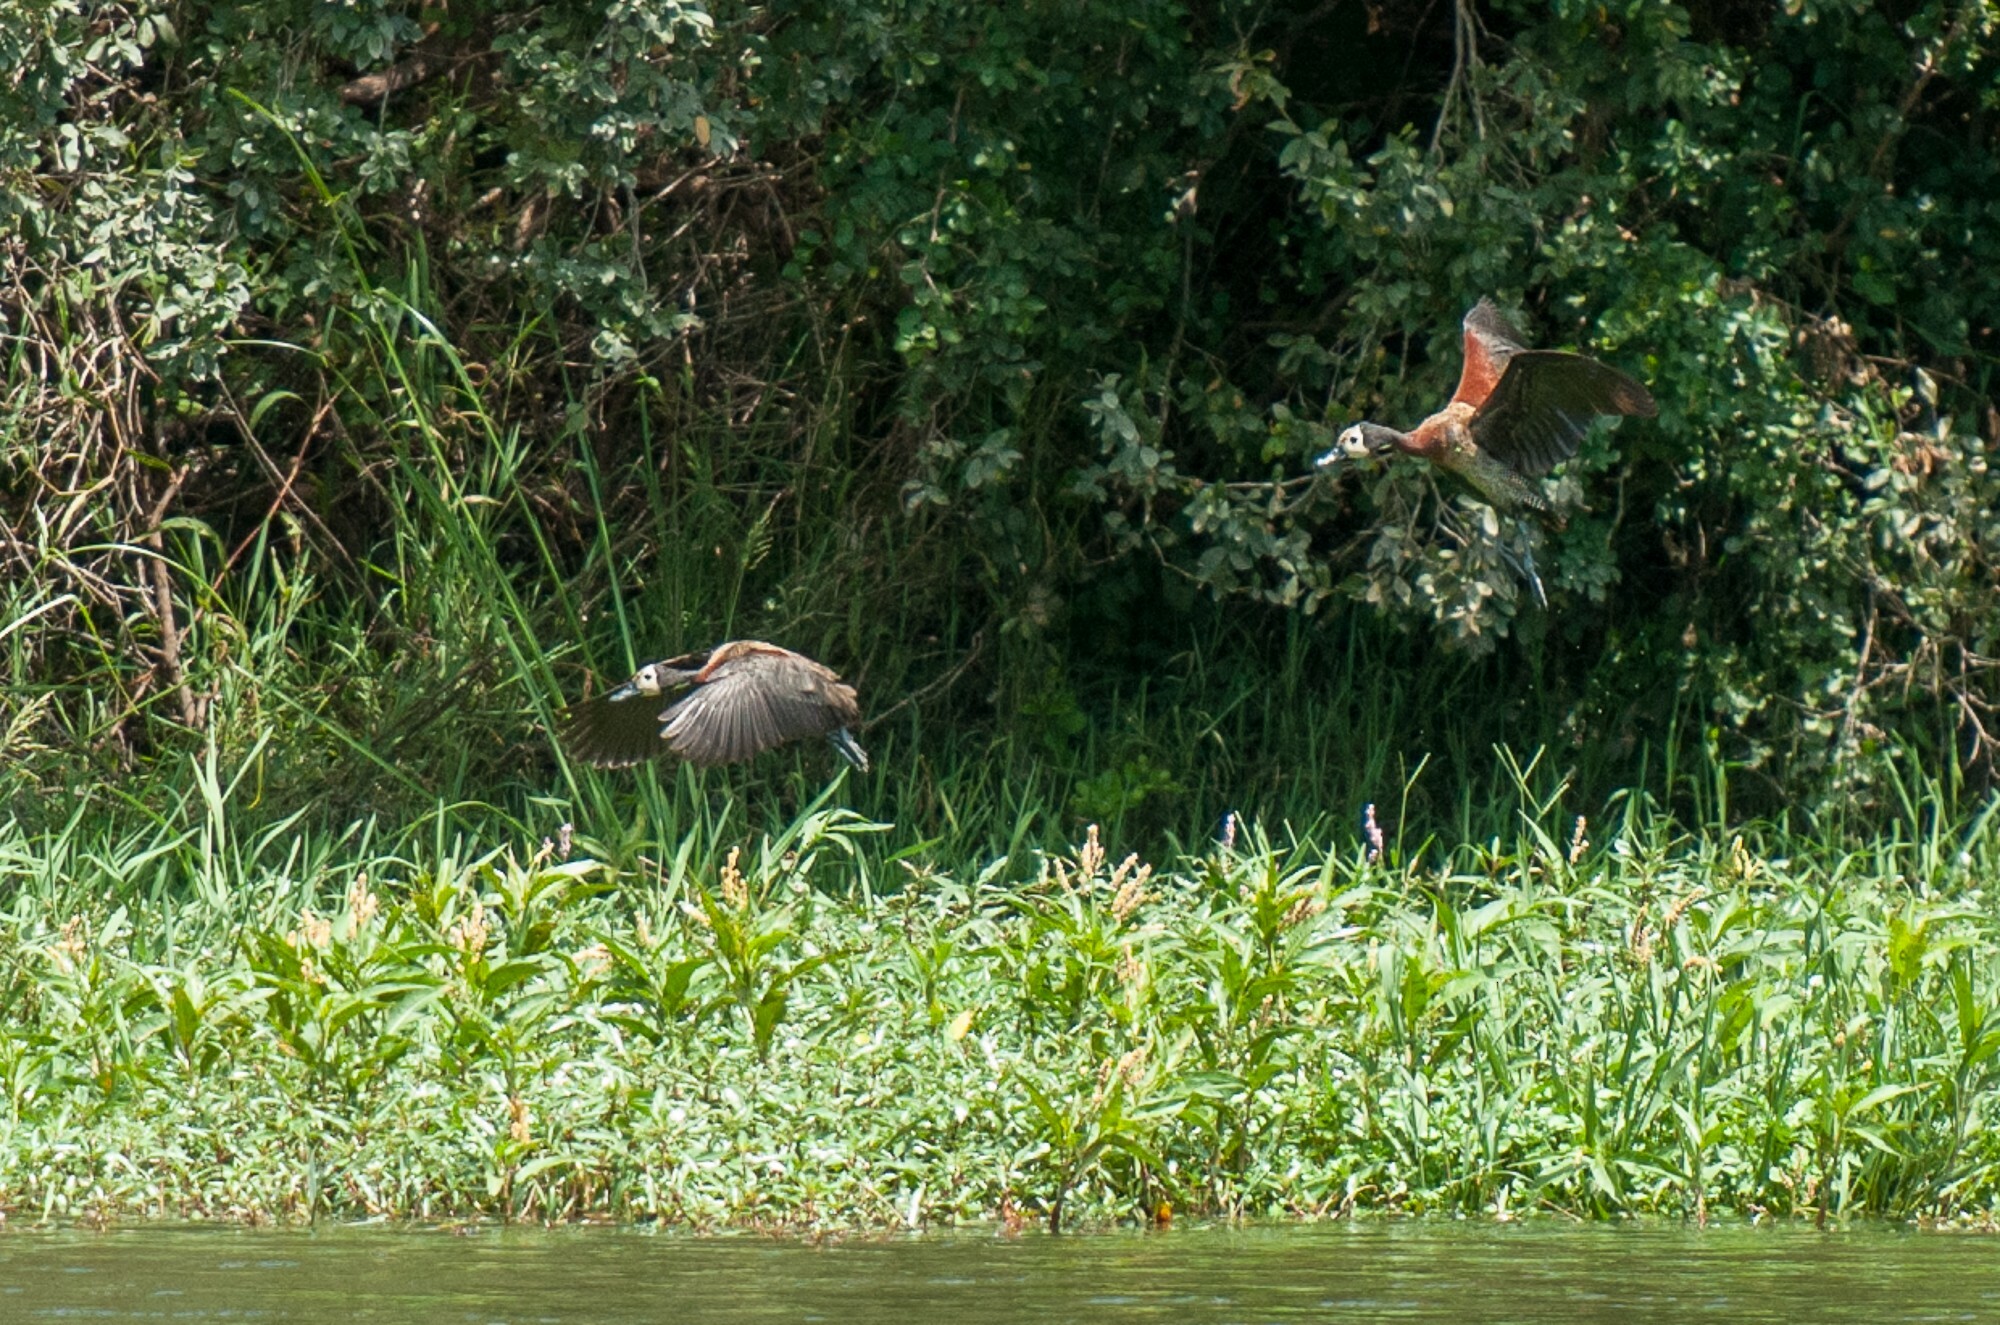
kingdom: Animalia
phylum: Chordata
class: Aves
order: Anseriformes
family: Anatidae
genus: Dendrocygna
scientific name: Dendrocygna viduata
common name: White-faced whistling duck
